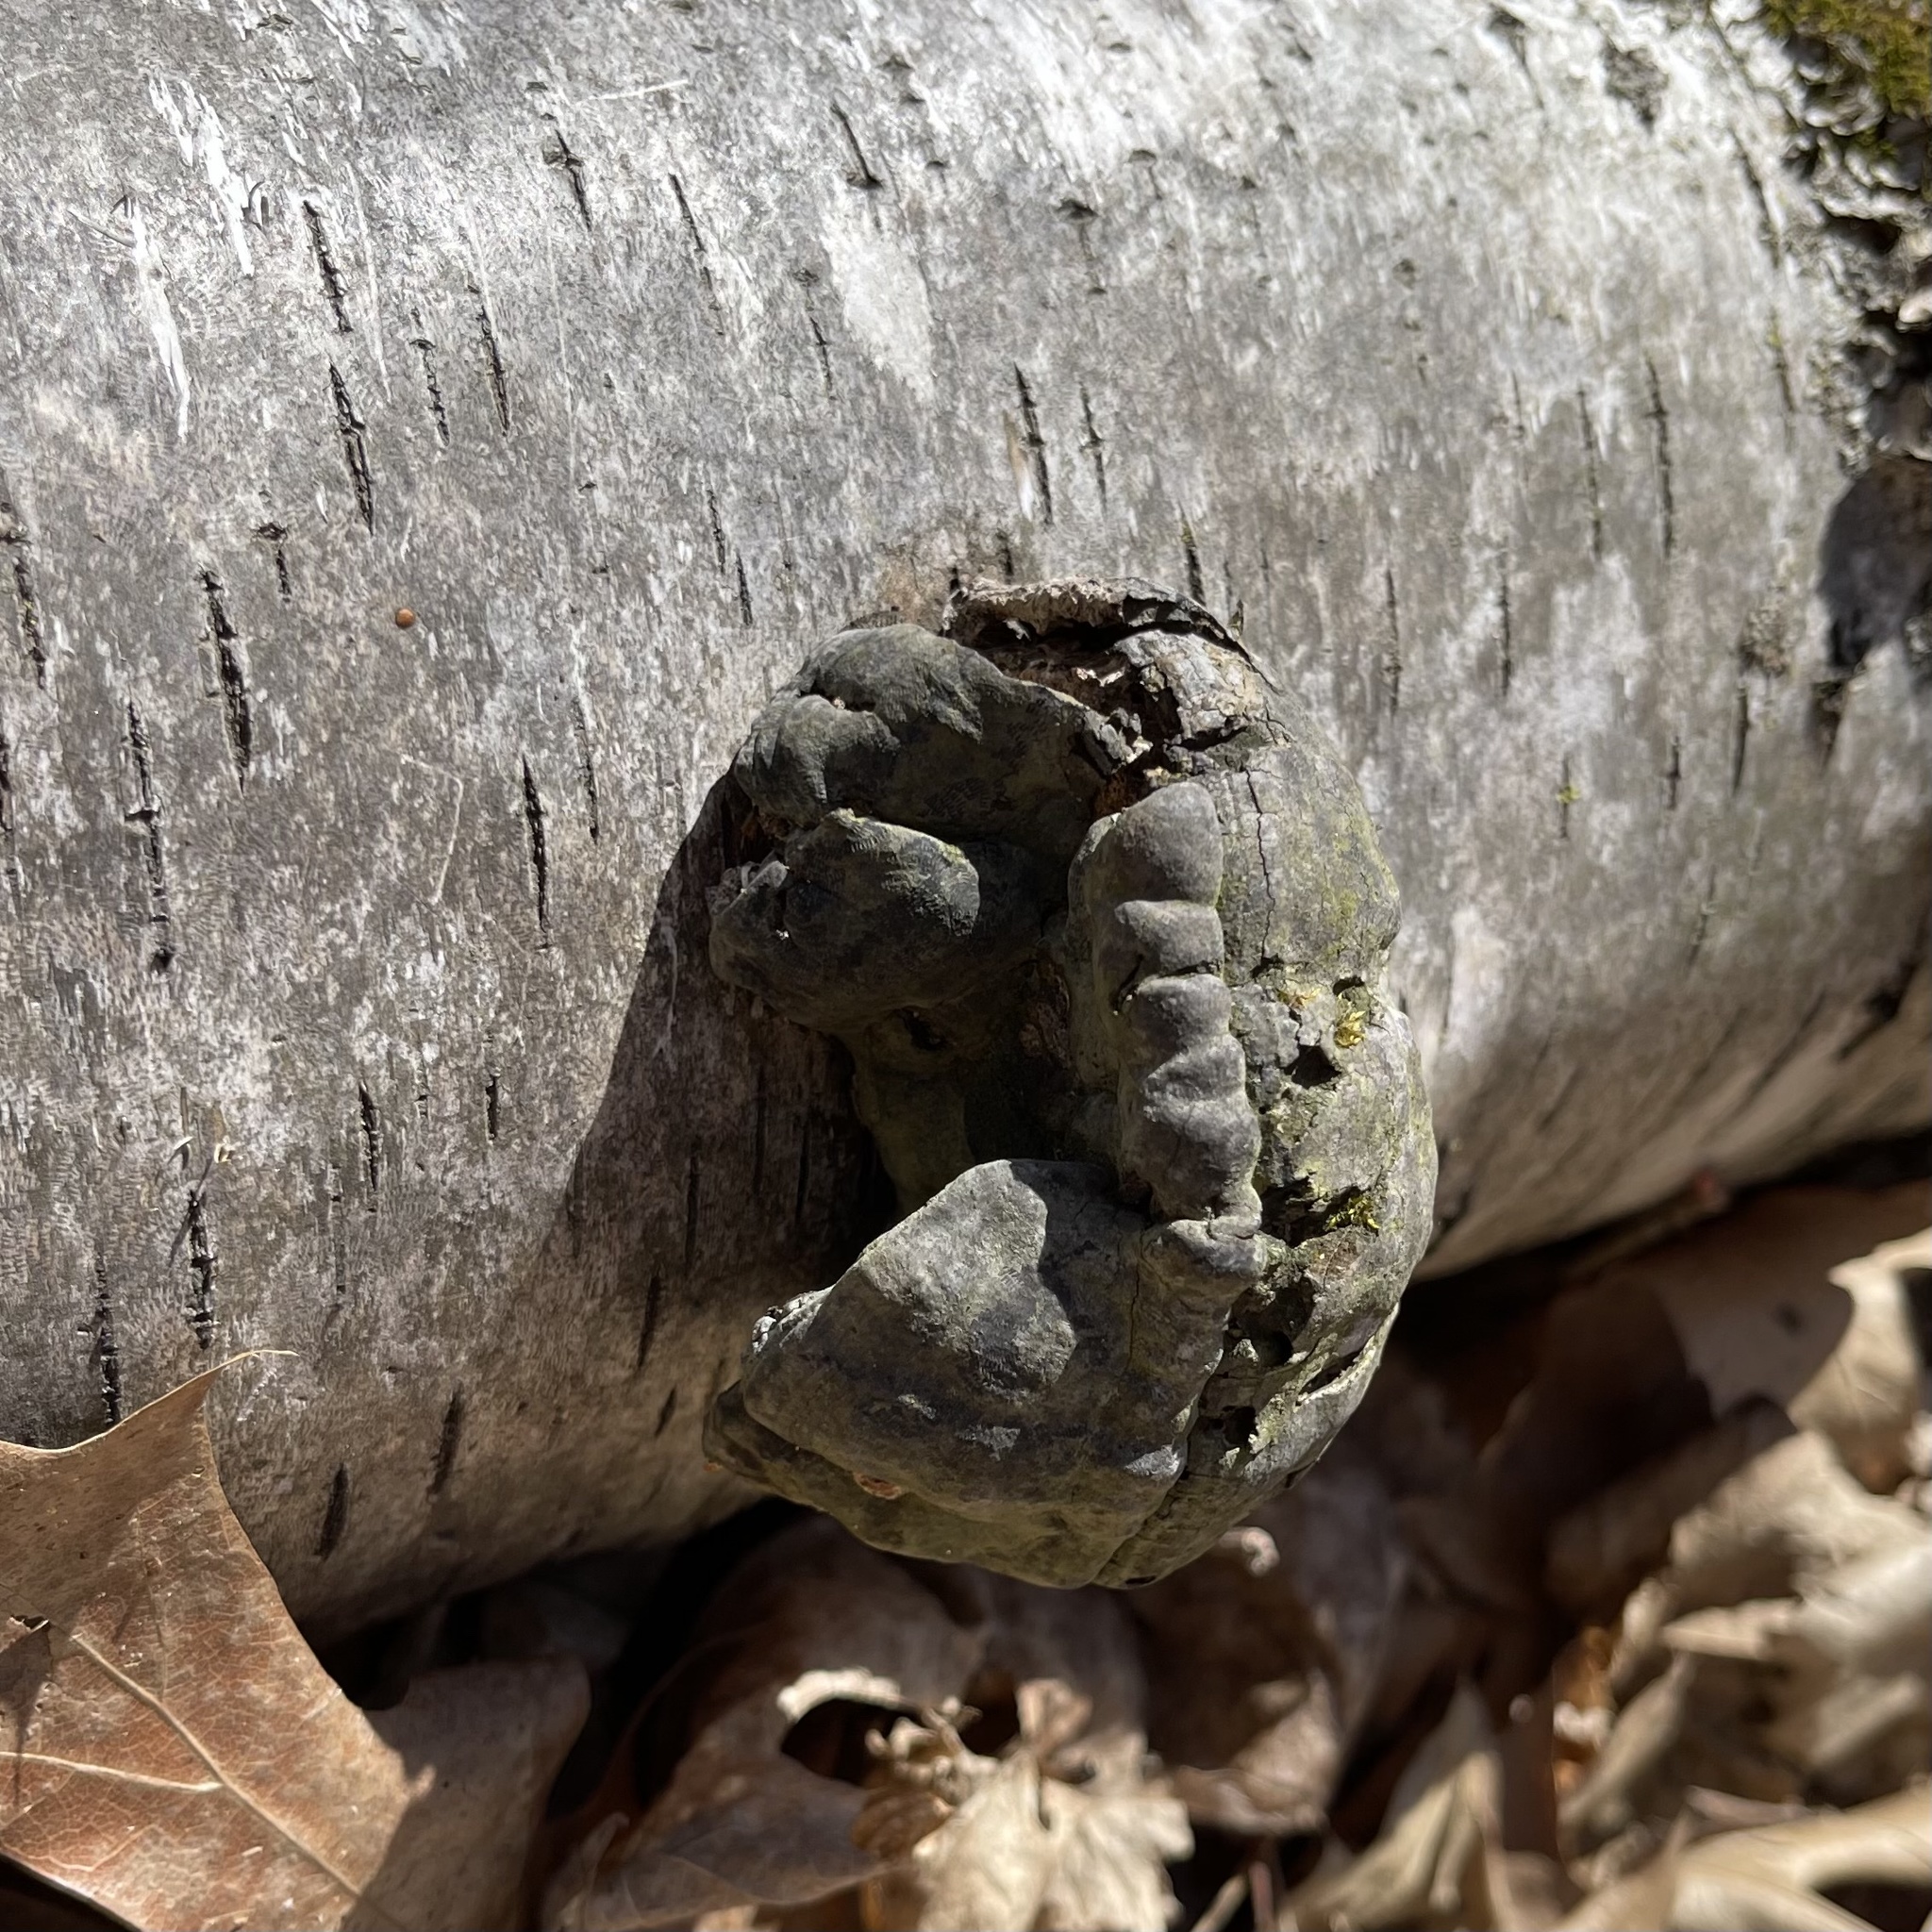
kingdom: Fungi
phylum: Basidiomycota
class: Agaricomycetes
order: Polyporales
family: Polyporaceae
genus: Fomes
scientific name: Fomes fomentarius
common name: Hoof fungus
